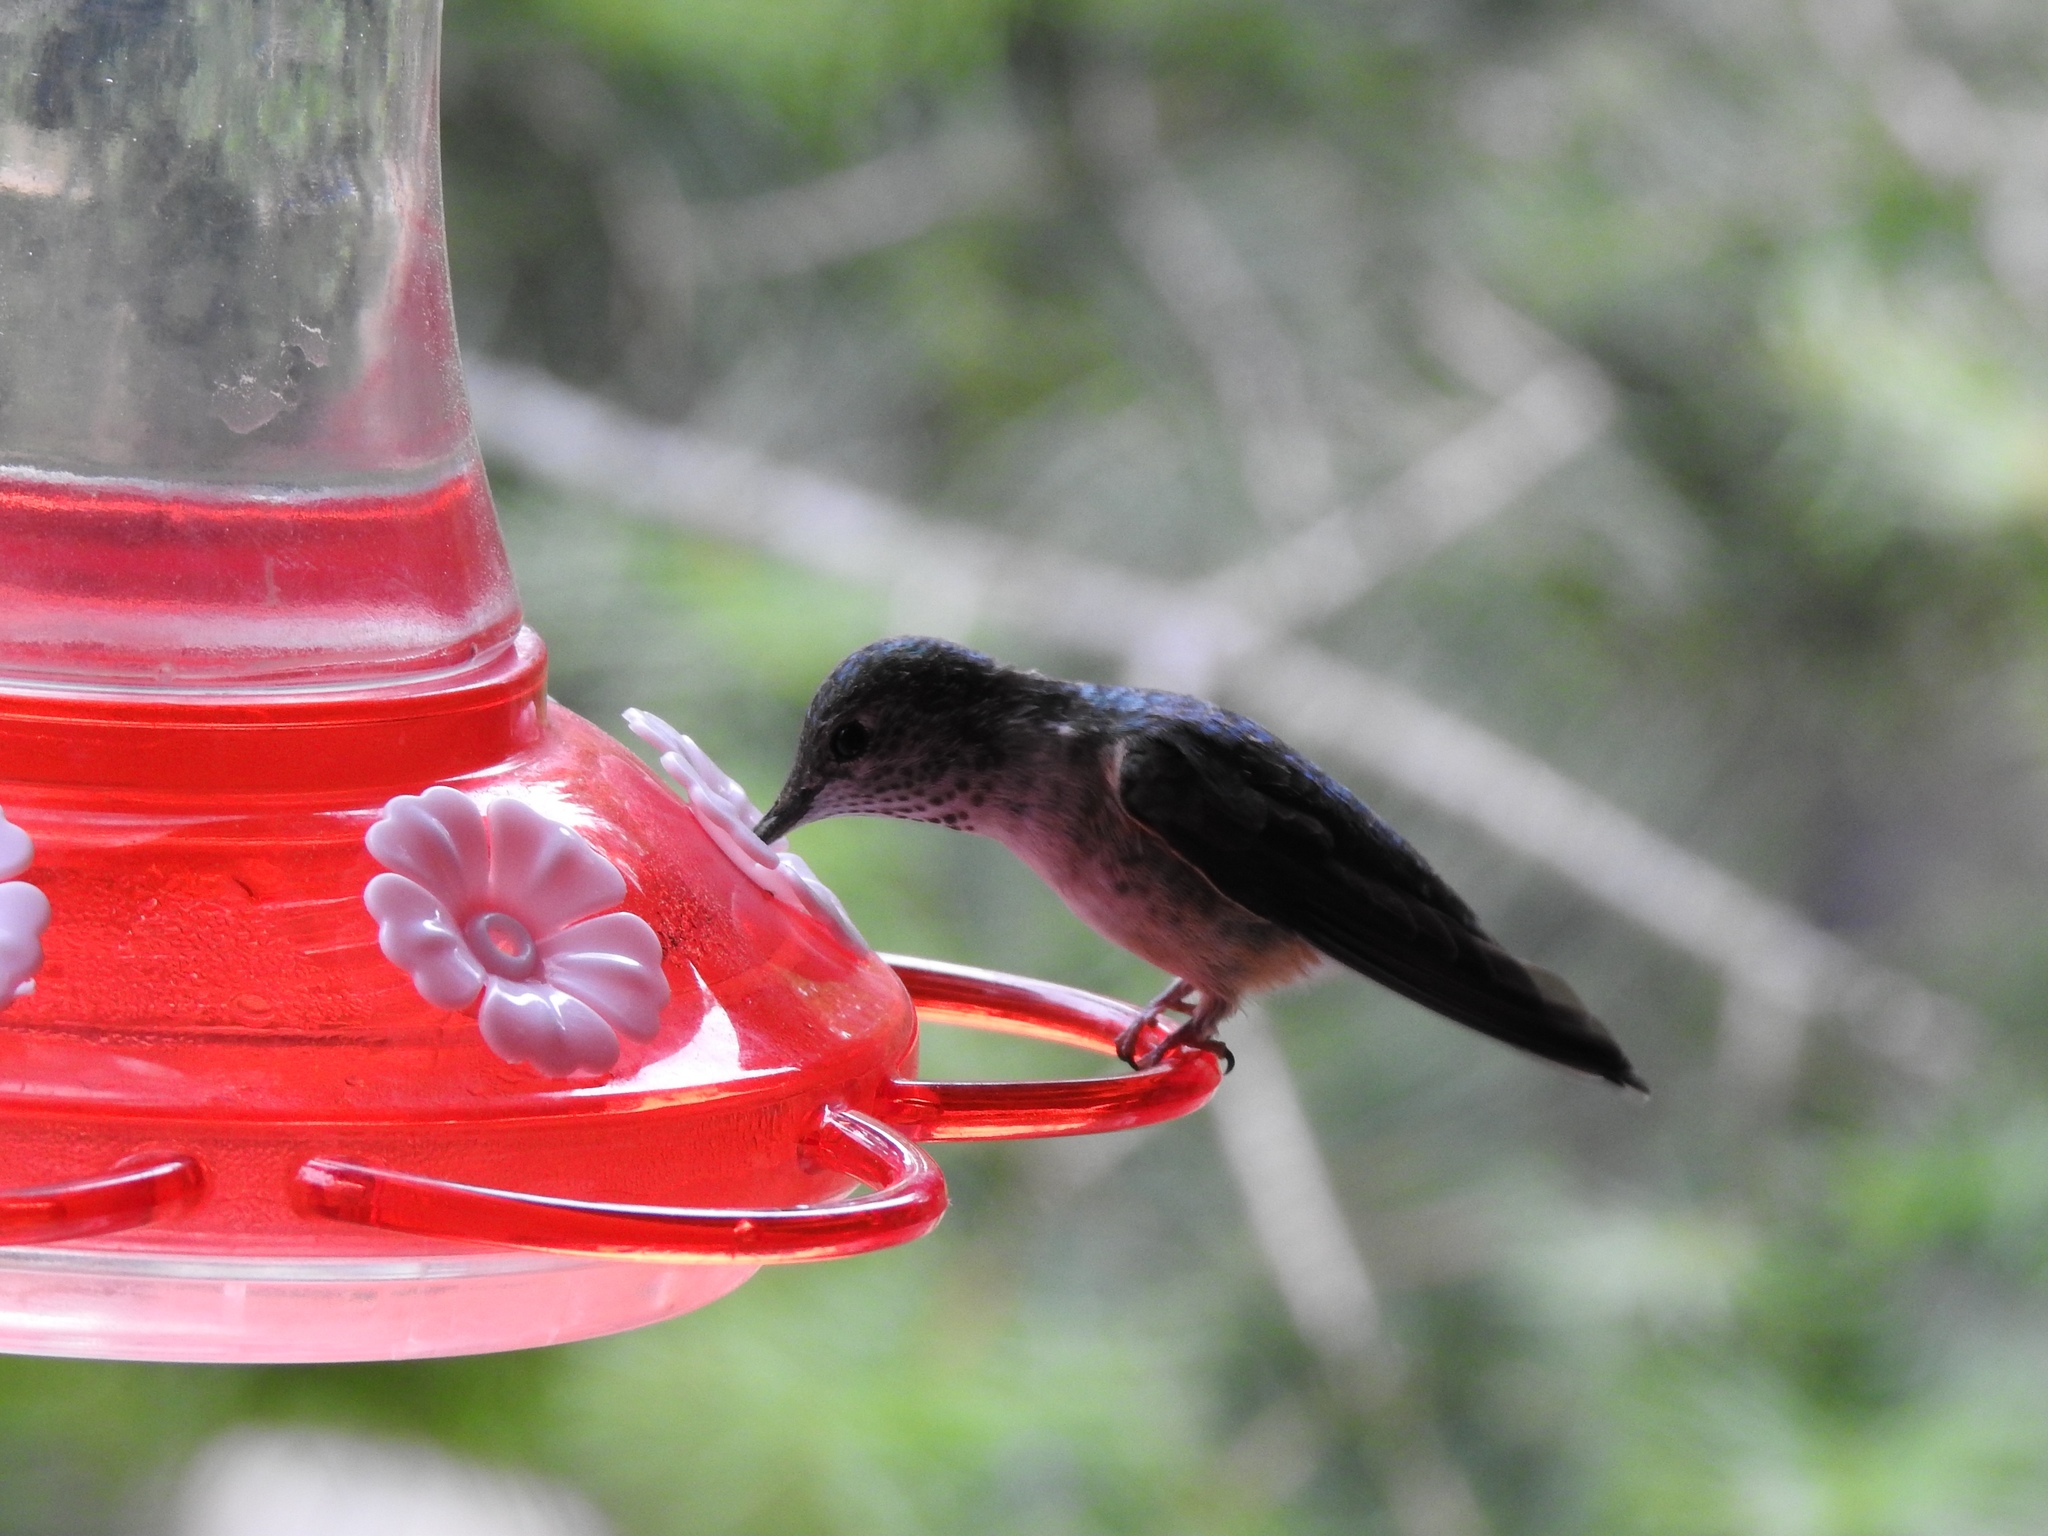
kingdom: Animalia
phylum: Chordata
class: Aves
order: Apodiformes
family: Trochilidae
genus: Selasphorus
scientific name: Selasphorus platycercus
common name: Broad-tailed hummingbird
